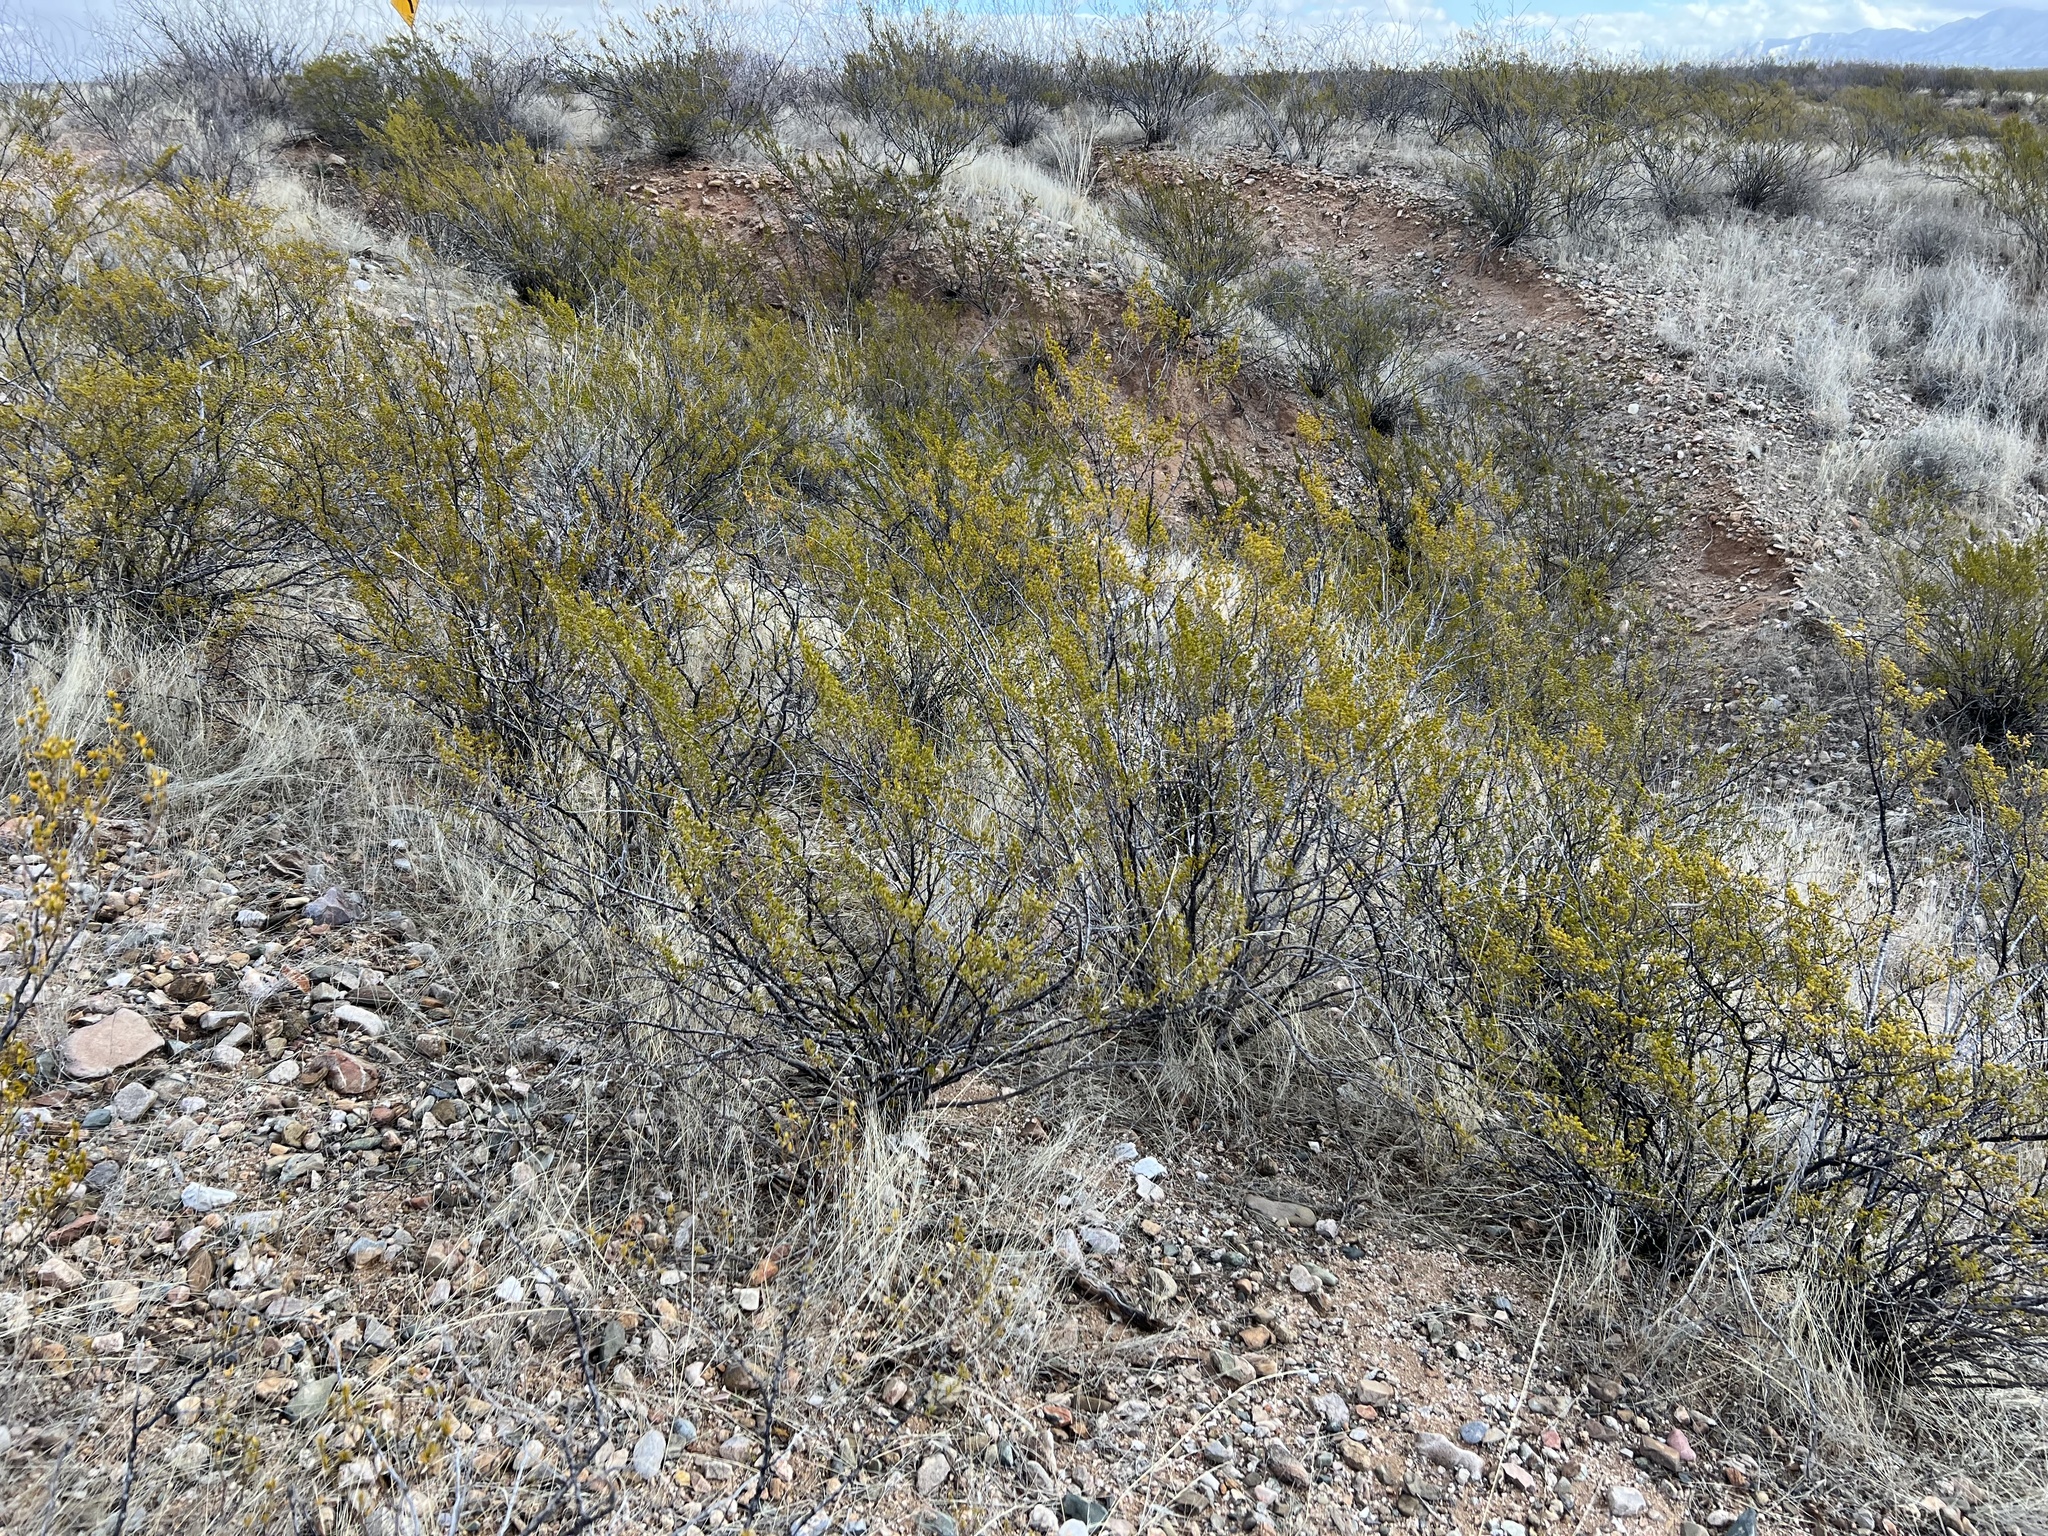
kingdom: Plantae
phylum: Tracheophyta
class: Magnoliopsida
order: Zygophyllales
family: Zygophyllaceae
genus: Larrea
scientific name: Larrea tridentata
